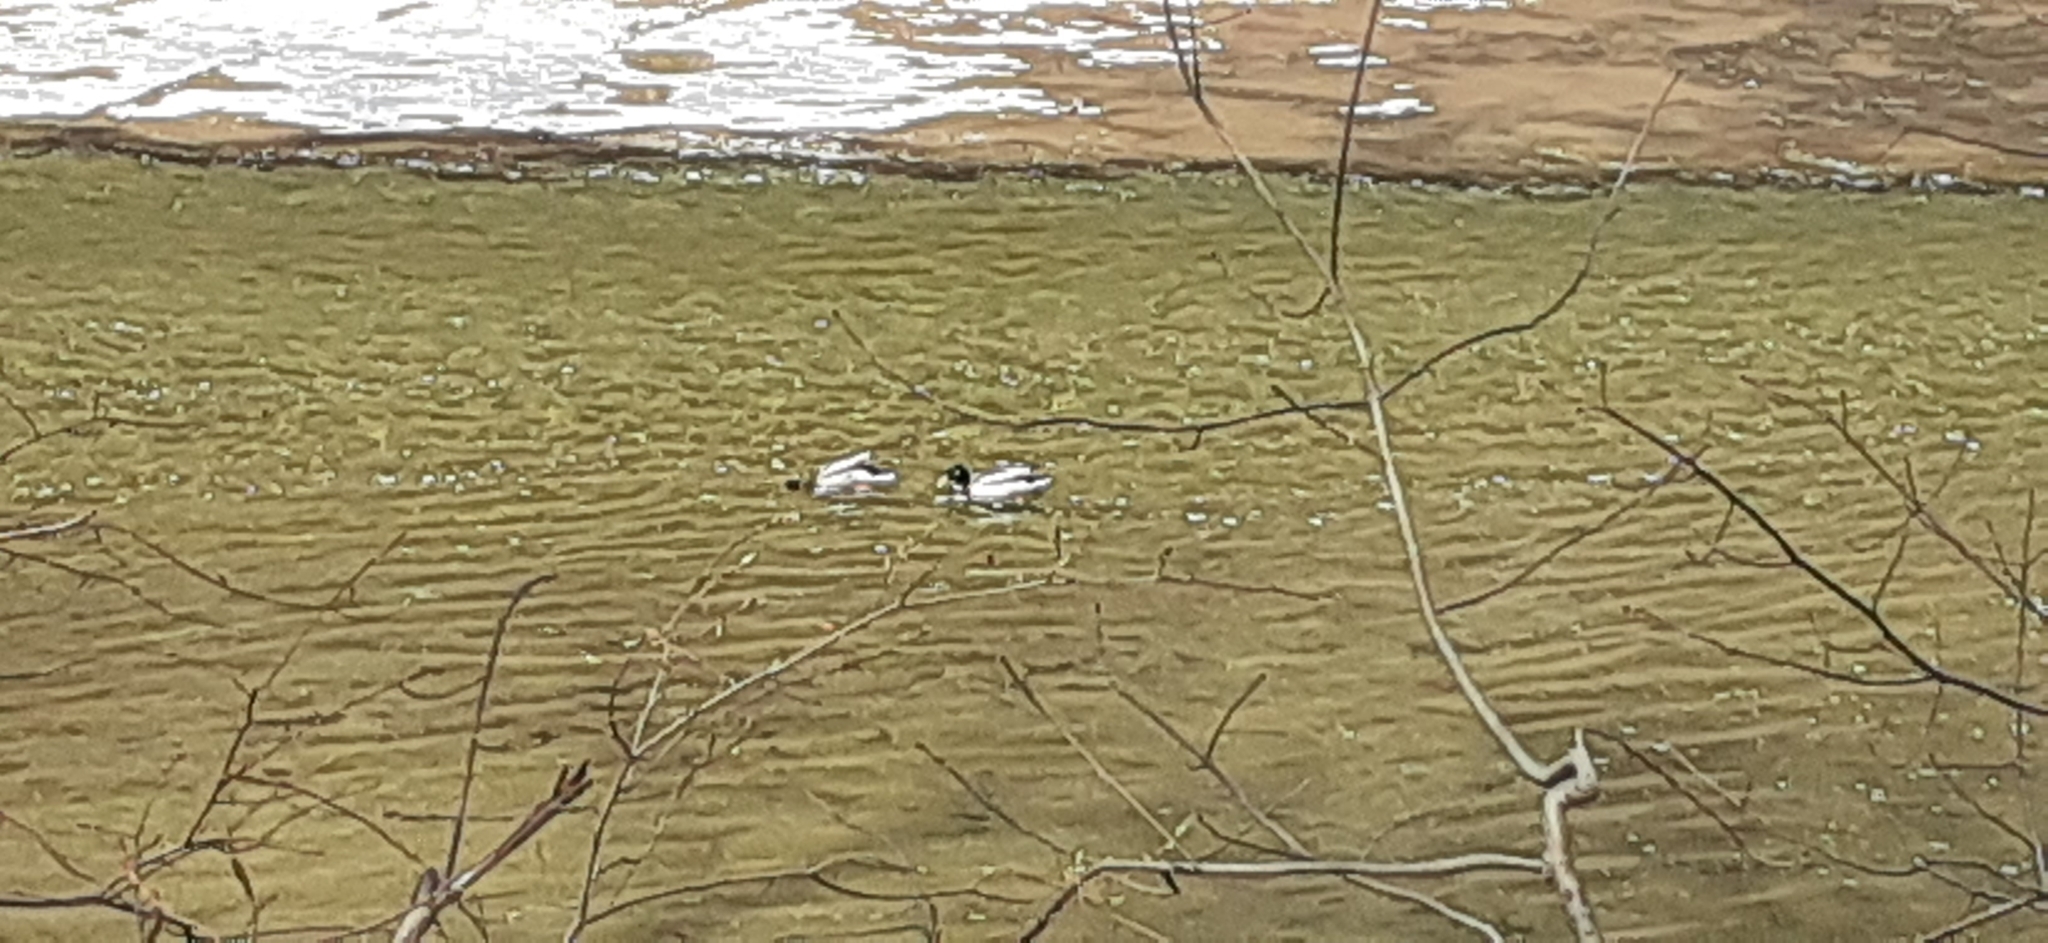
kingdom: Animalia
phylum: Chordata
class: Aves
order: Anseriformes
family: Anatidae
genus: Anas
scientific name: Anas platyrhynchos
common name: Mallard
